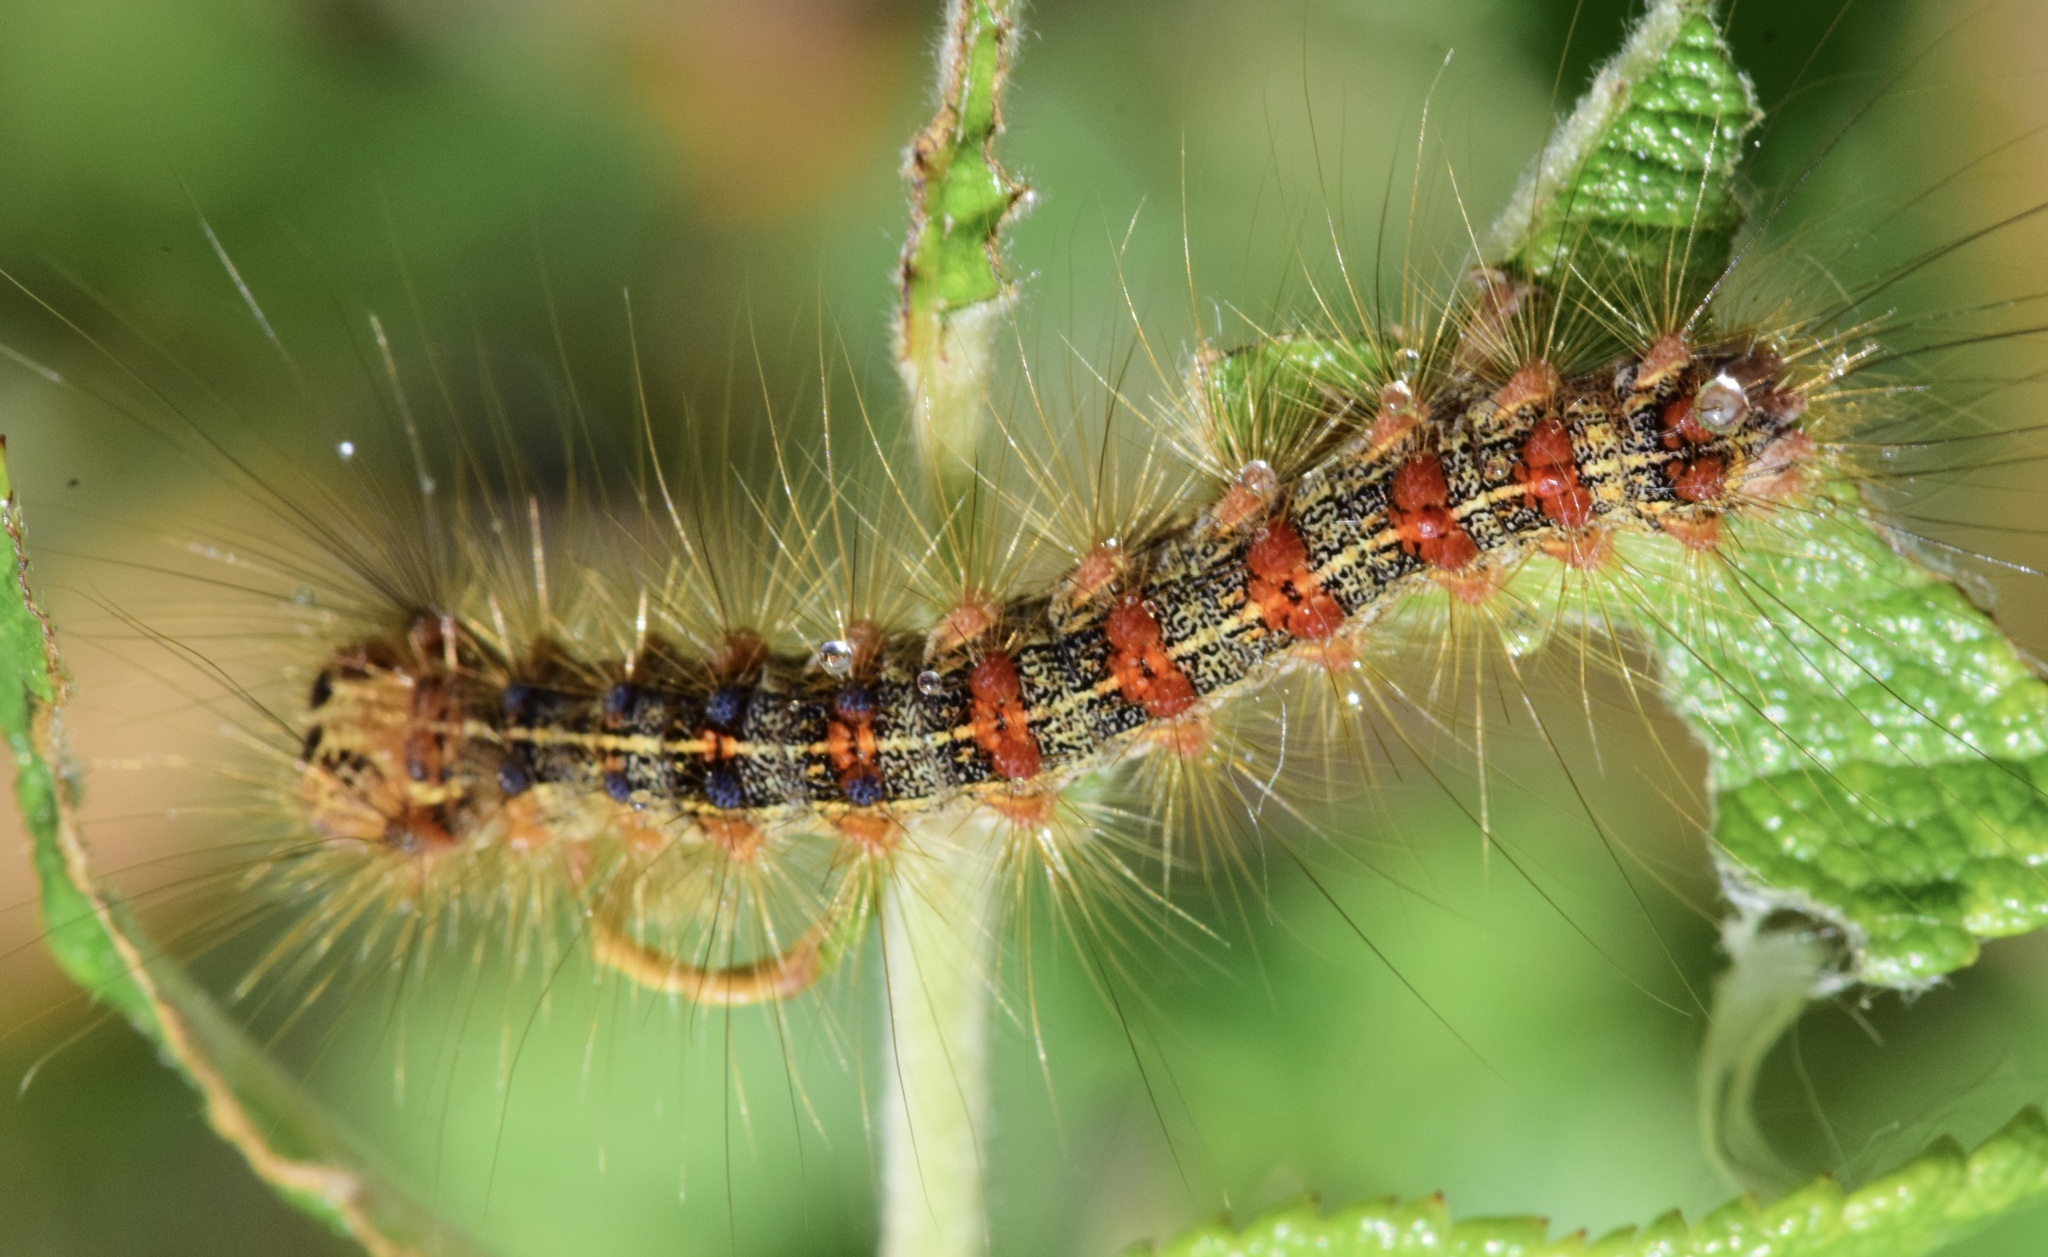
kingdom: Animalia
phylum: Arthropoda
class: Insecta
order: Lepidoptera
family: Erebidae
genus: Lymantria
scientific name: Lymantria dispar
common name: Gypsy moth
